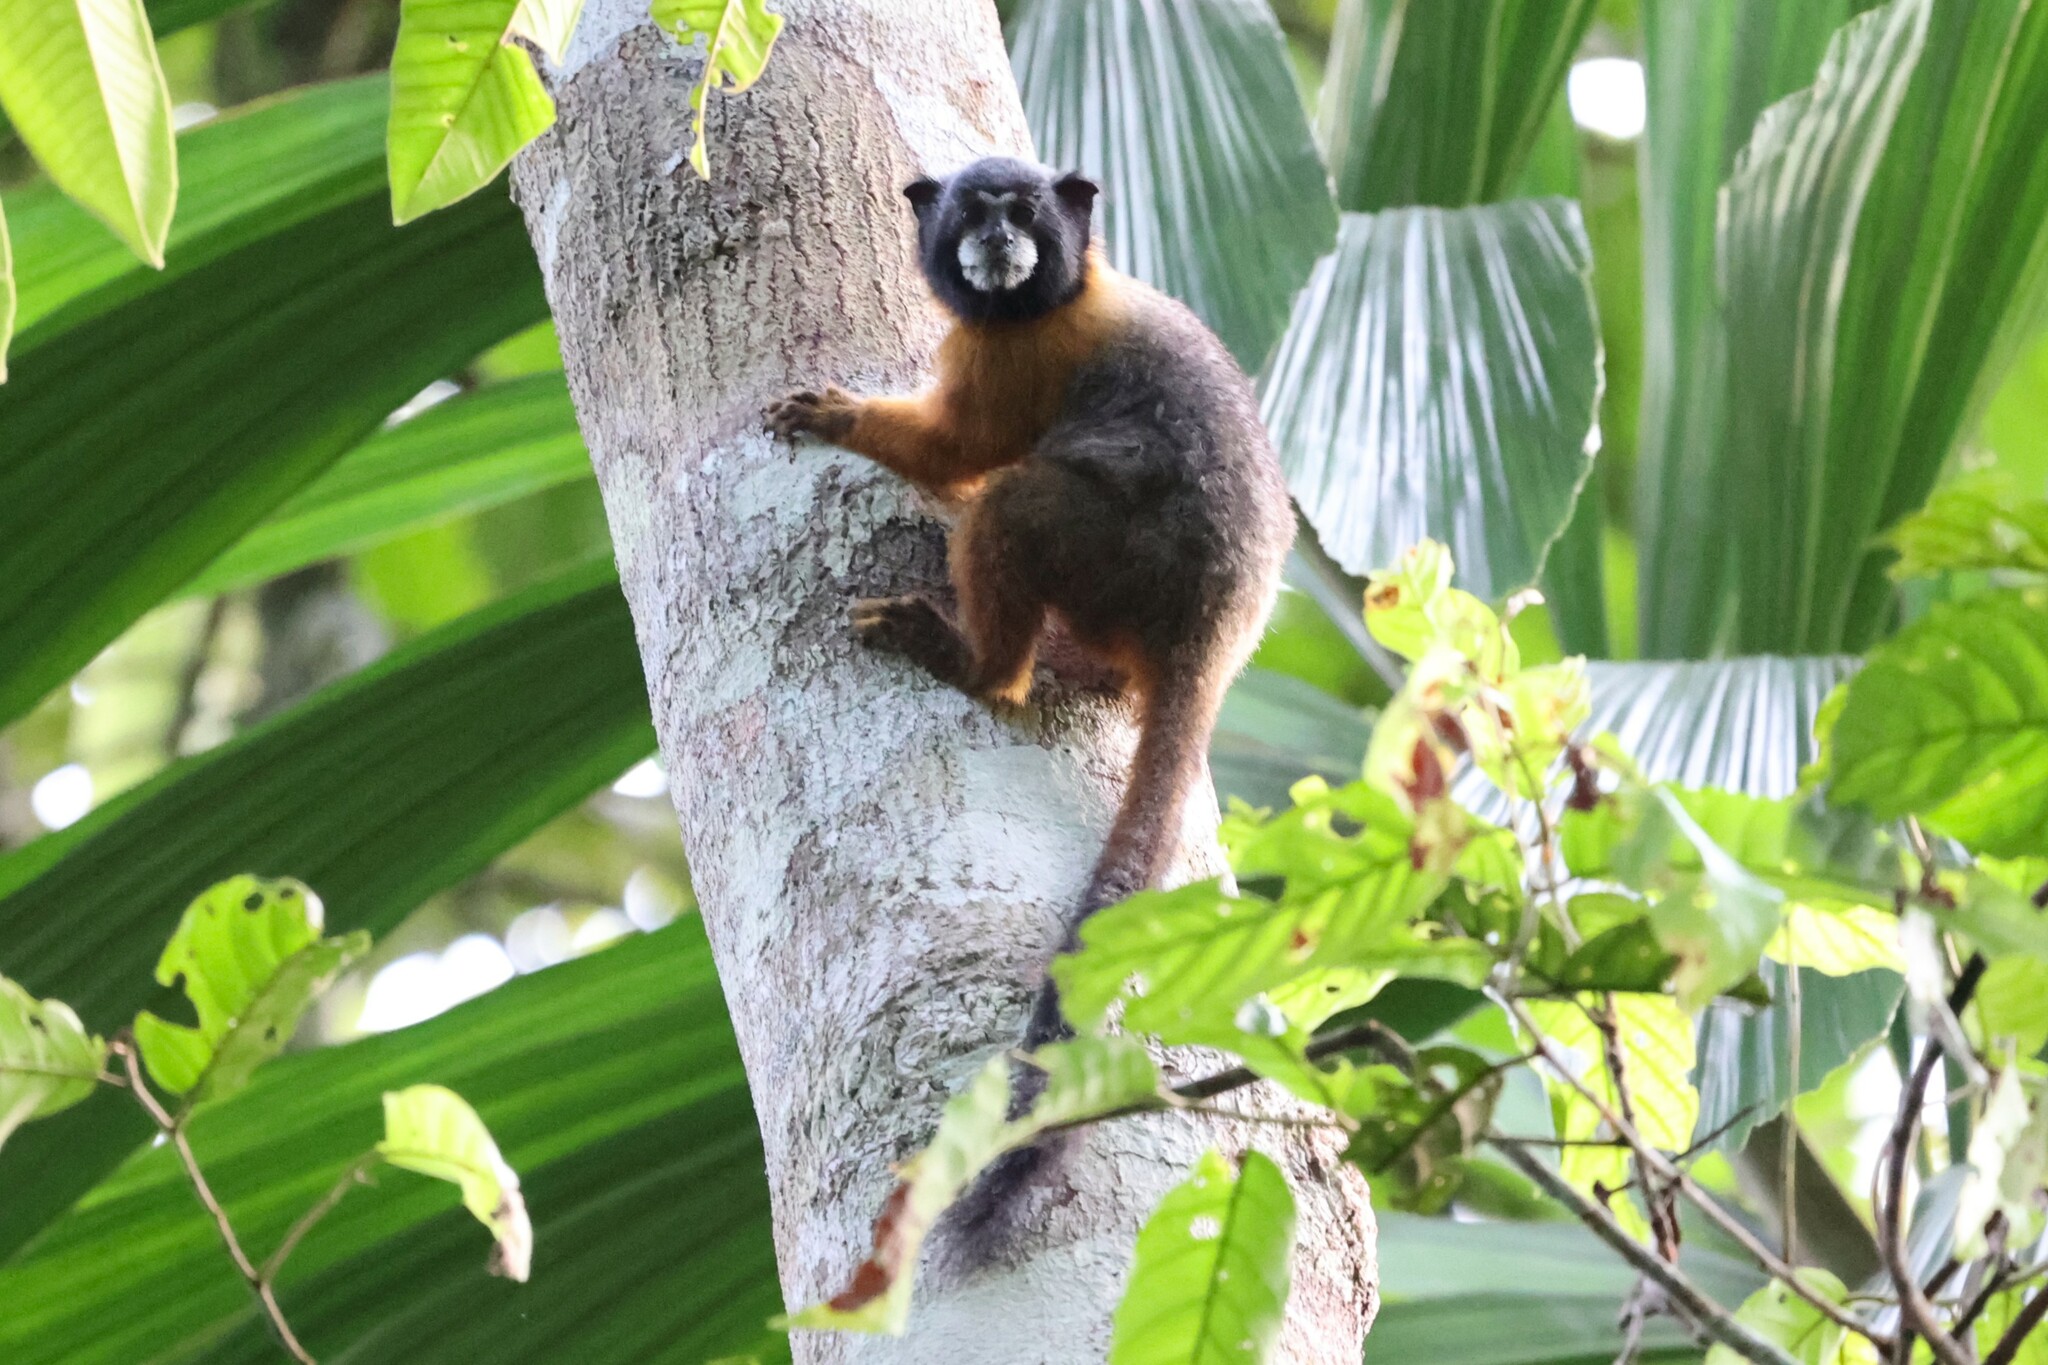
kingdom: Animalia
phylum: Chordata
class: Mammalia
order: Primates
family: Callitrichidae
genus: Leontocebus
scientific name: Leontocebus tripartitus
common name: Golden-mantled saddle-back tamarin
